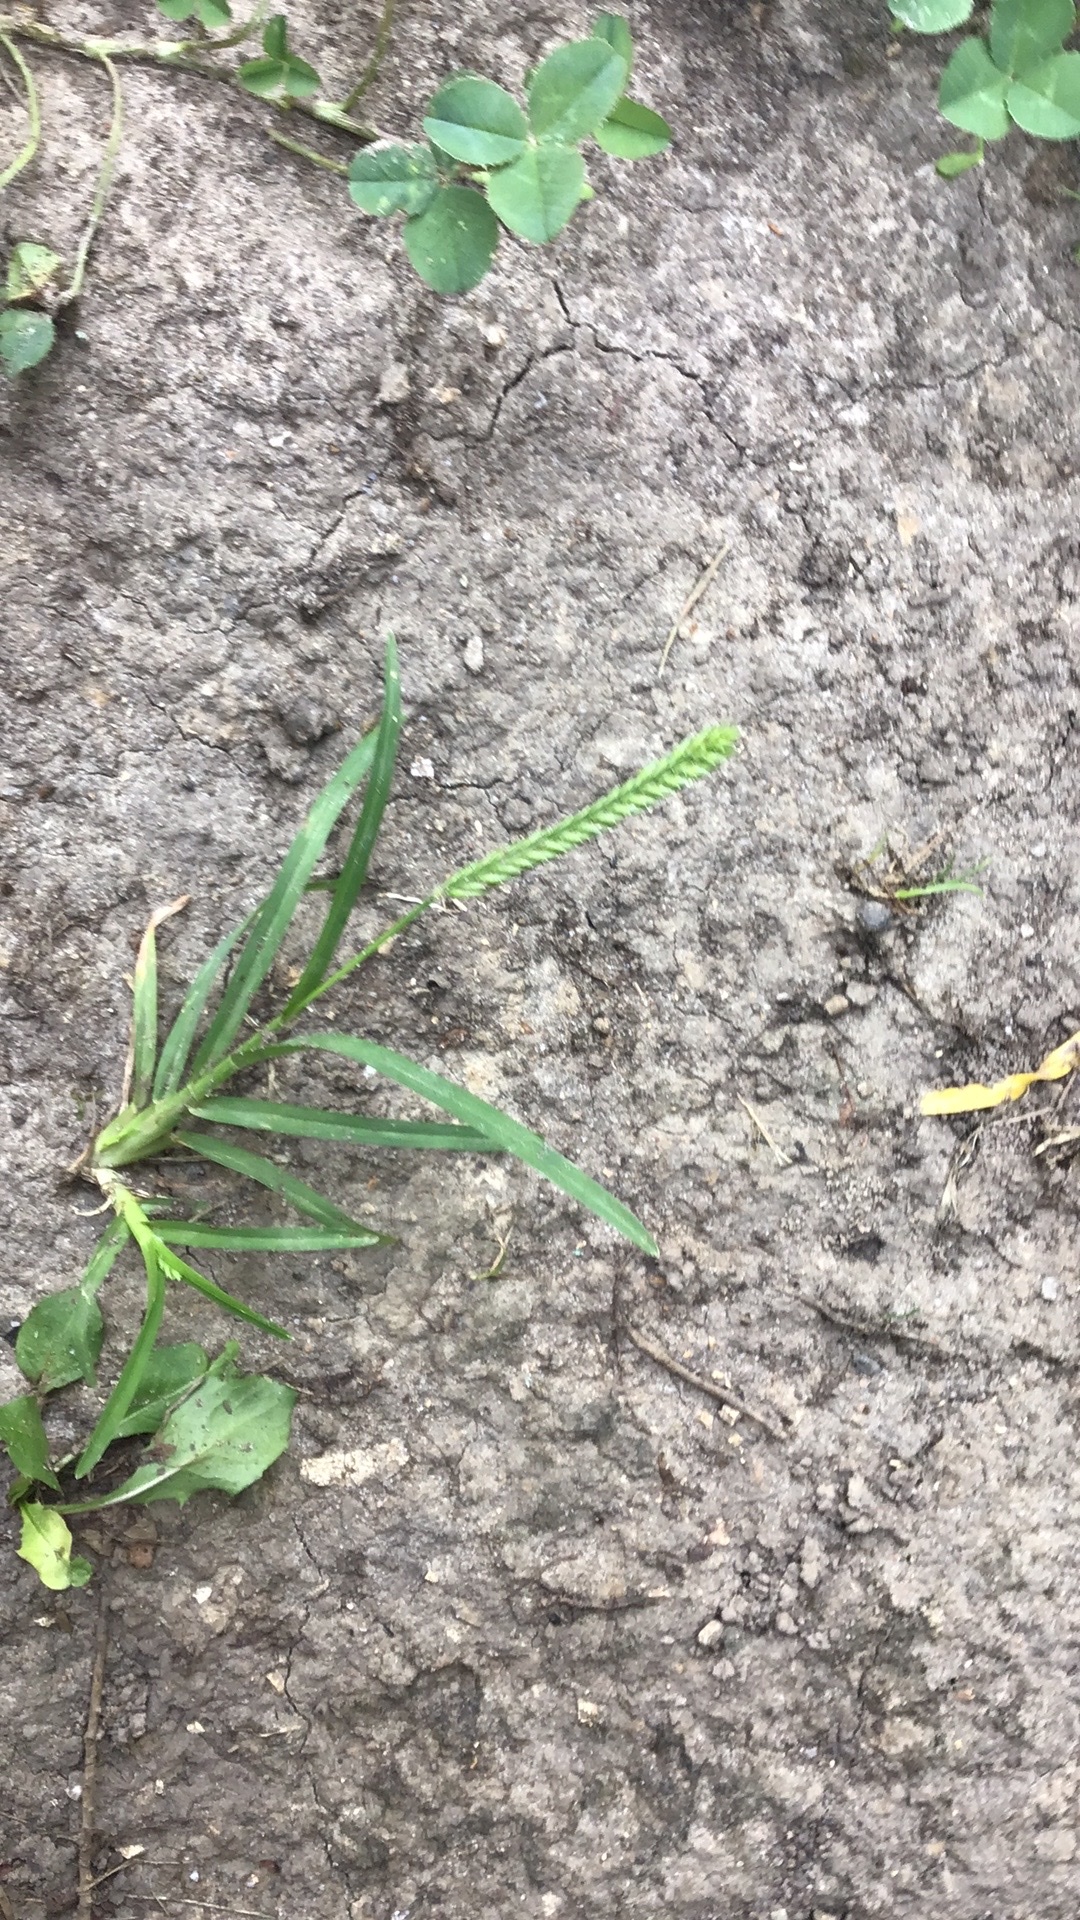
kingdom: Plantae
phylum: Tracheophyta
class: Liliopsida
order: Poales
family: Poaceae
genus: Eleusine
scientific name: Eleusine indica
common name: Yard-grass
